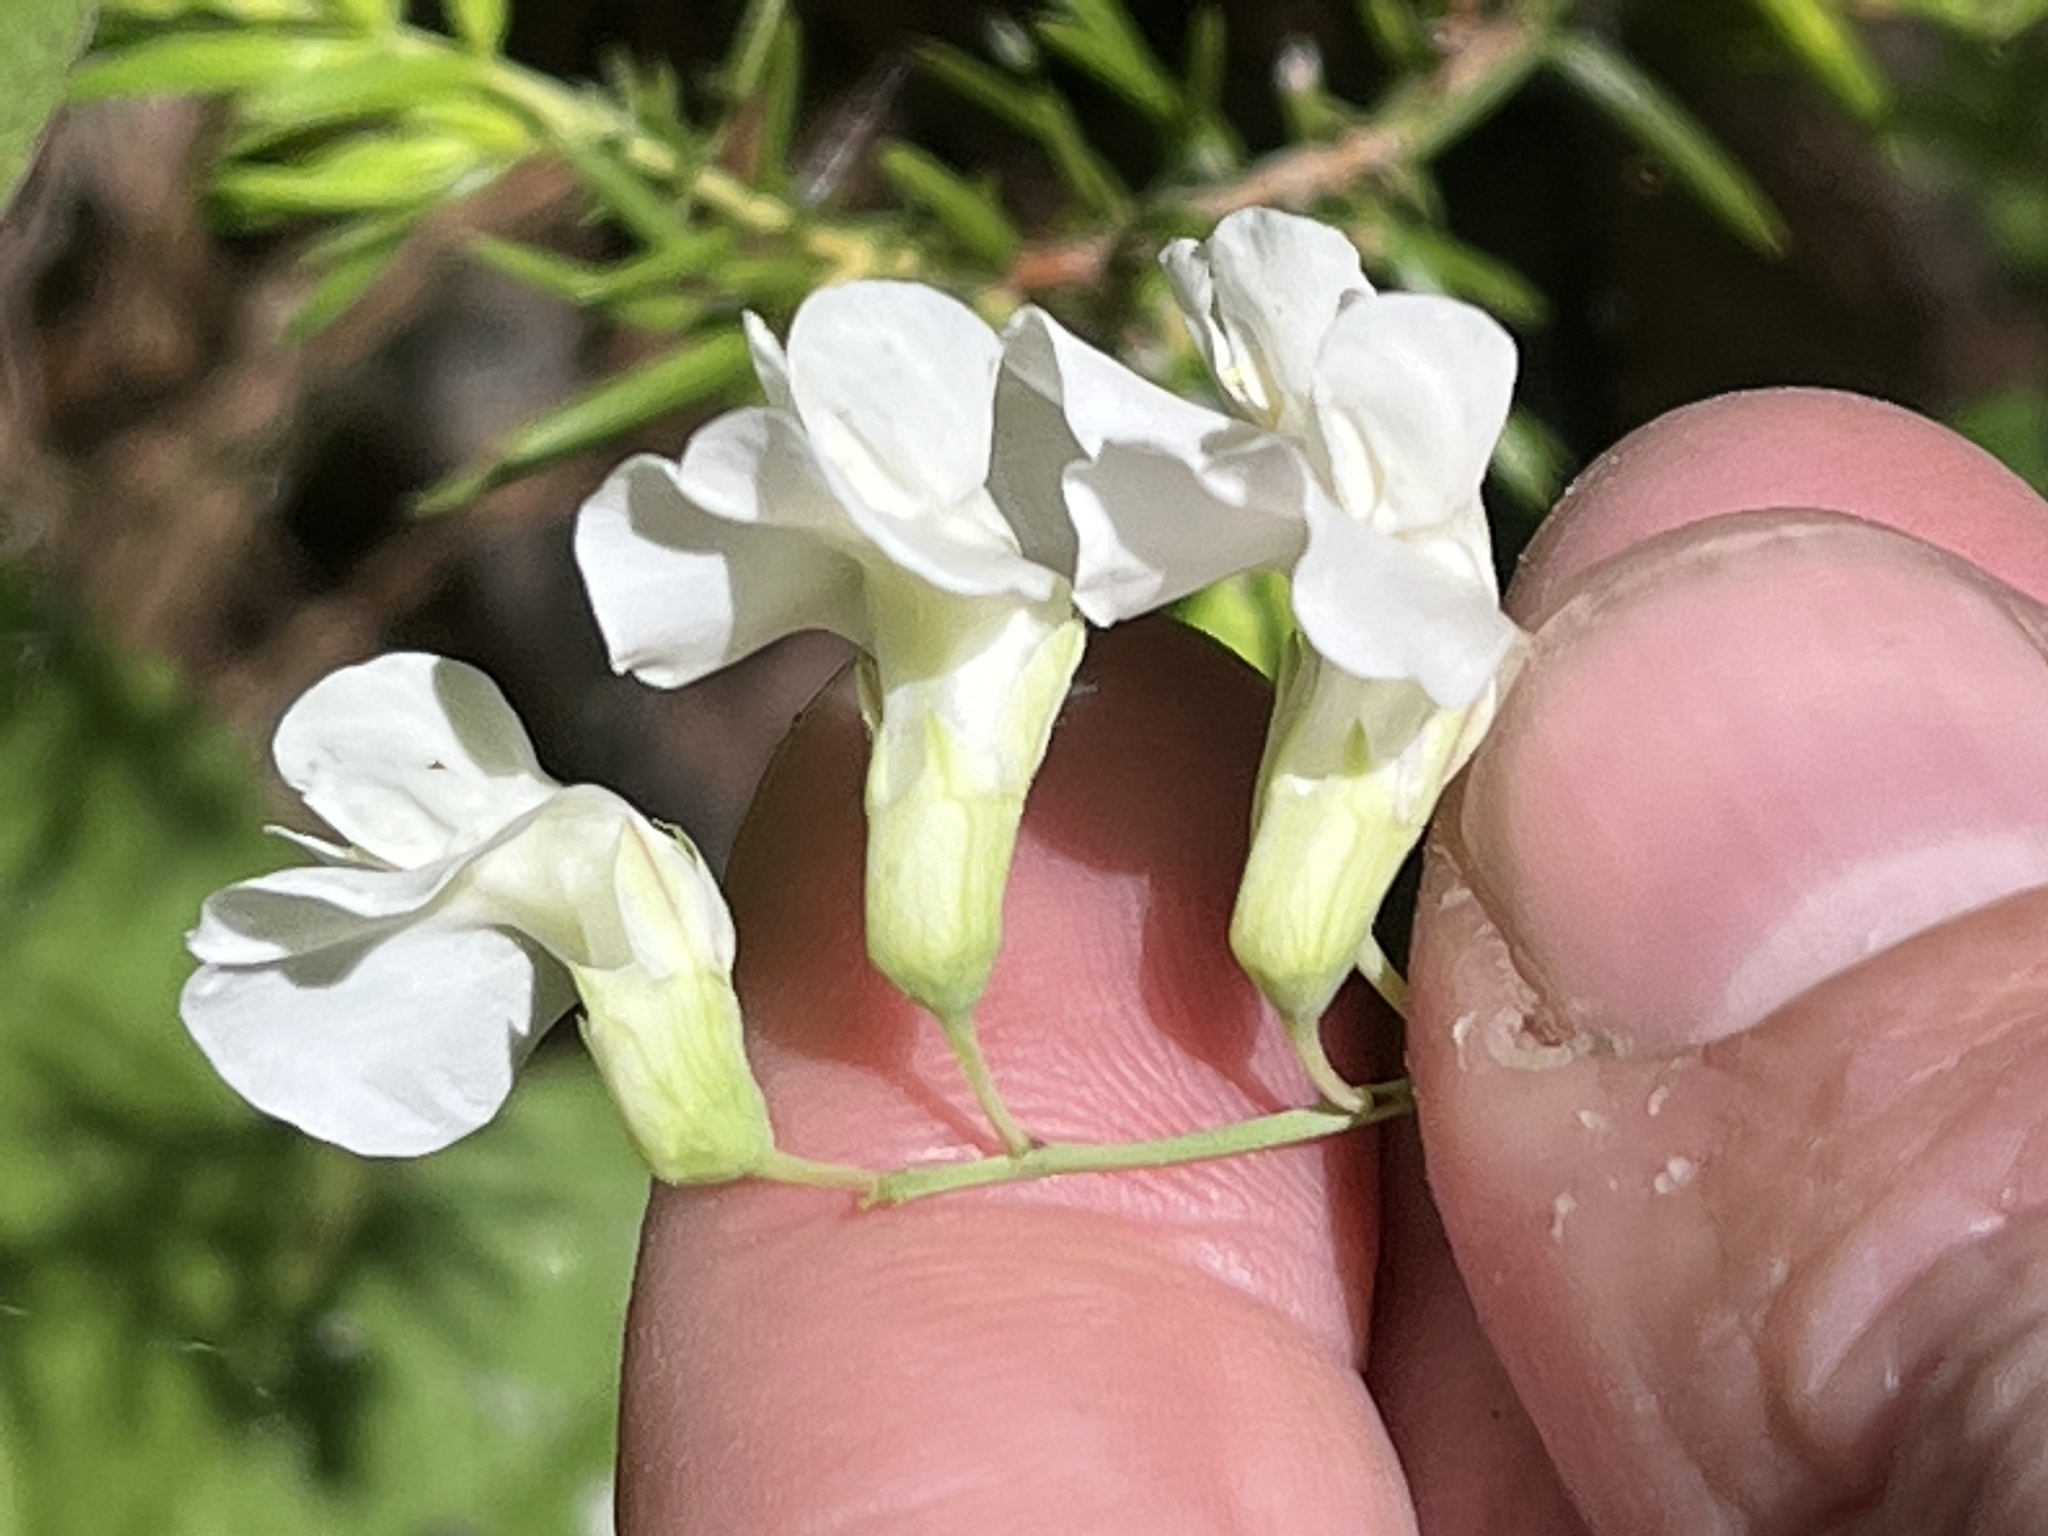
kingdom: Plantae
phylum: Tracheophyta
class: Magnoliopsida
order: Fabales
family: Fabaceae
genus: Lathyrus
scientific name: Lathyrus ochroleucus
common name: Pale vetchling
